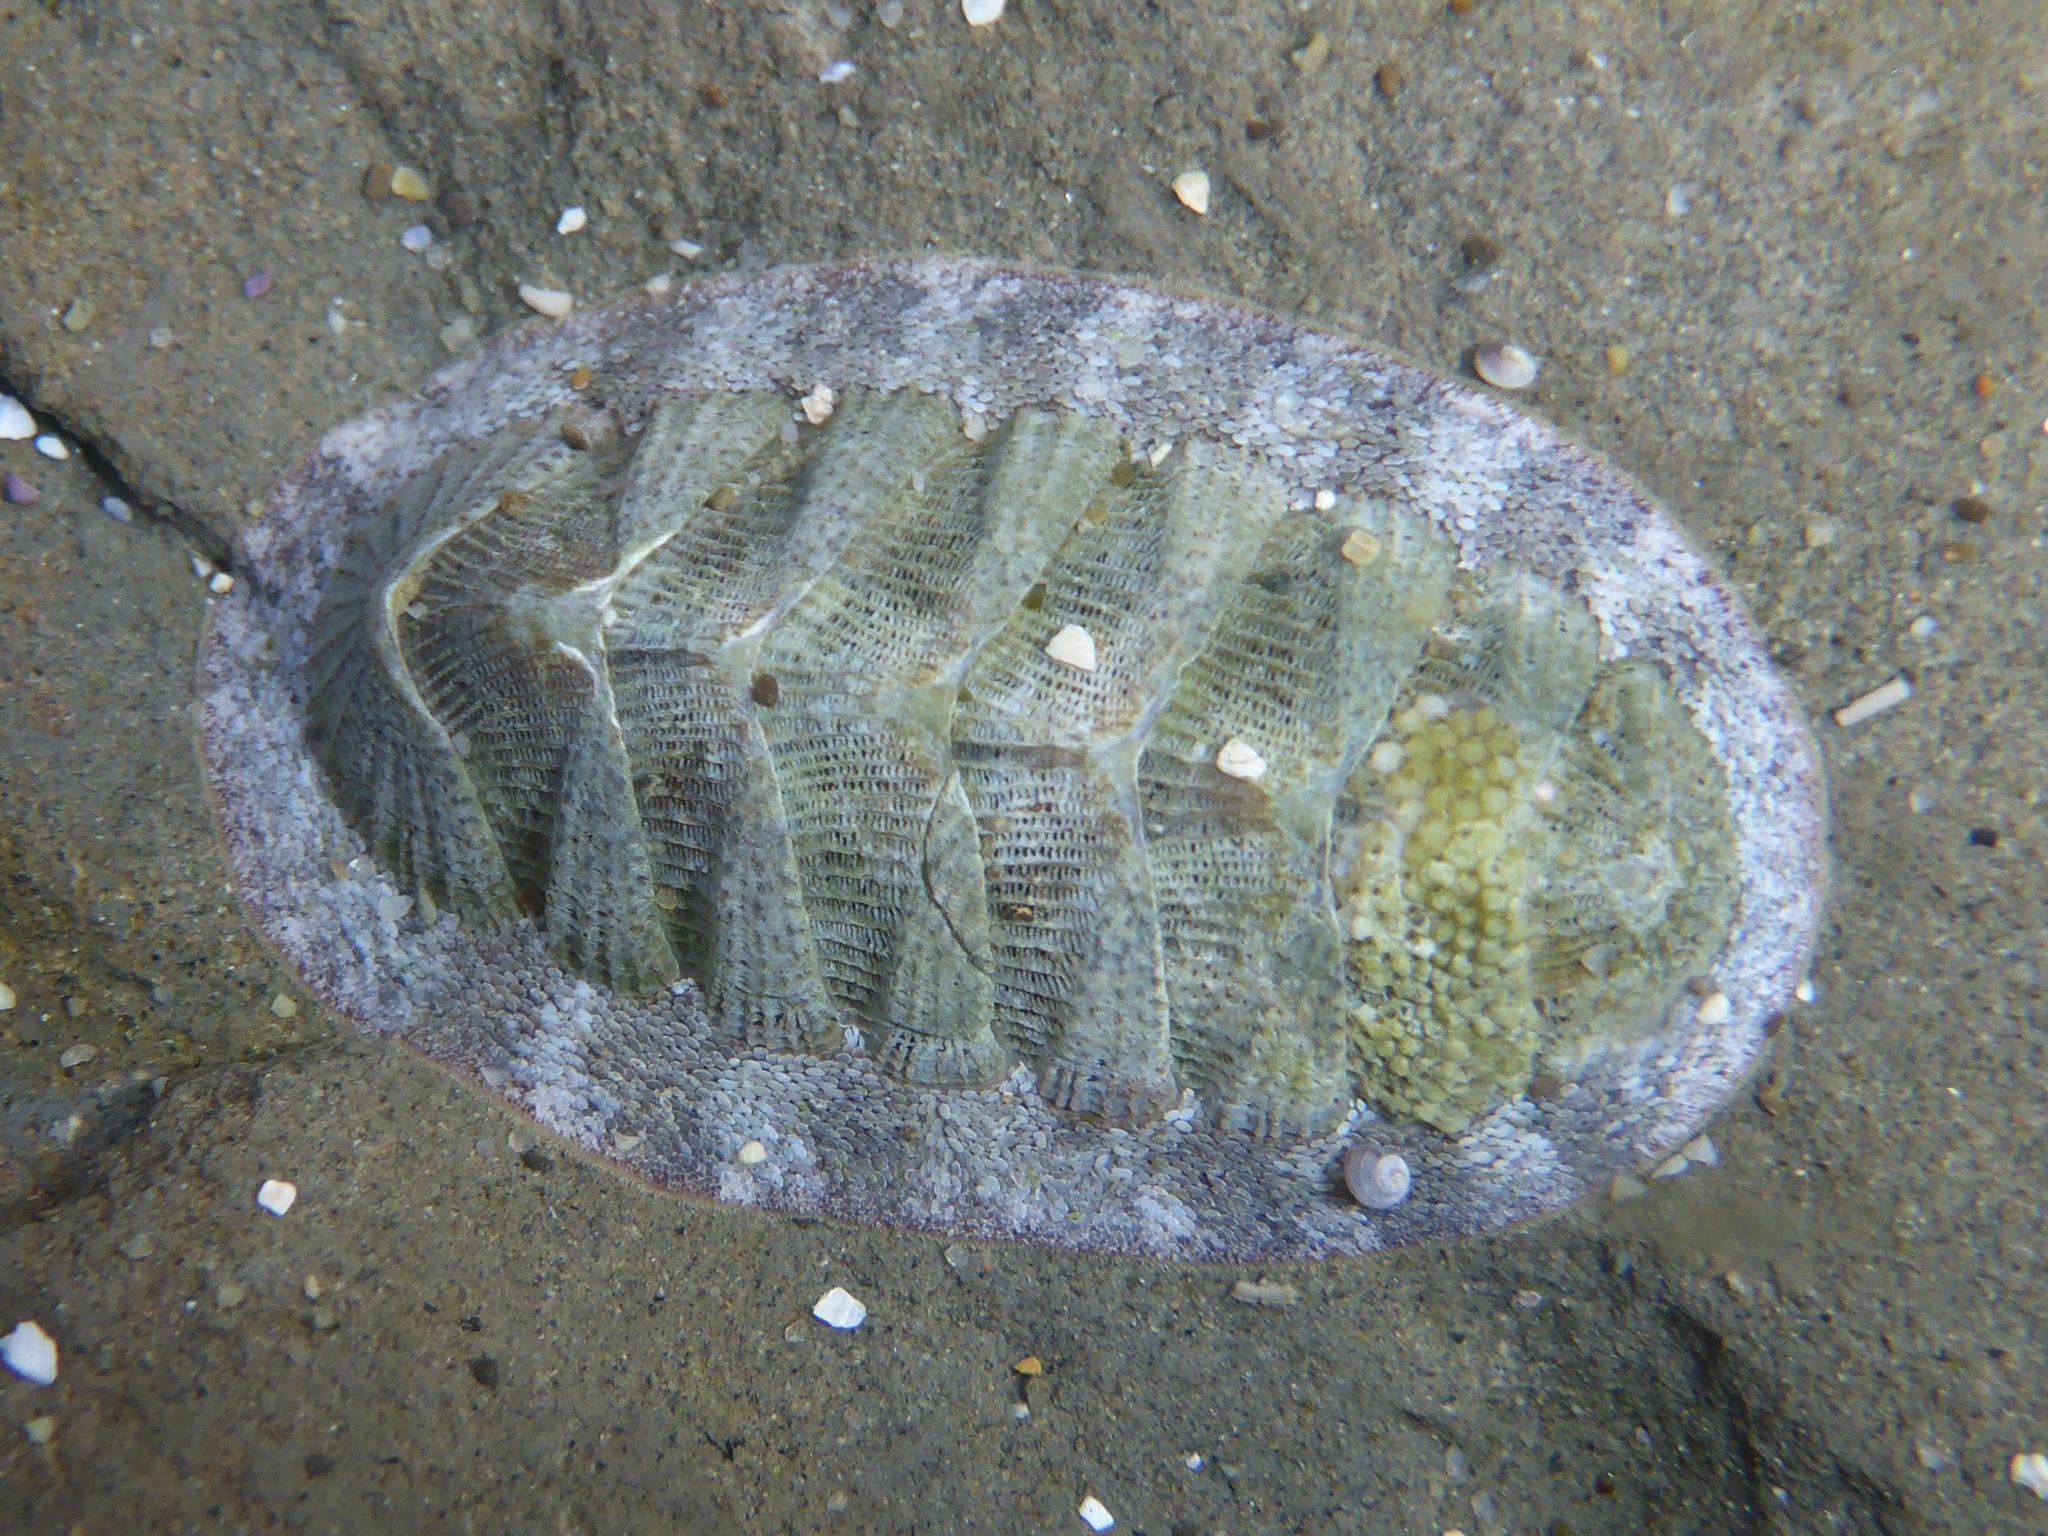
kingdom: Animalia
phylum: Mollusca
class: Polyplacophora
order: Chitonida
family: Ischnochitonidae
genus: Lepidozona
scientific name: Lepidozona cooperi
